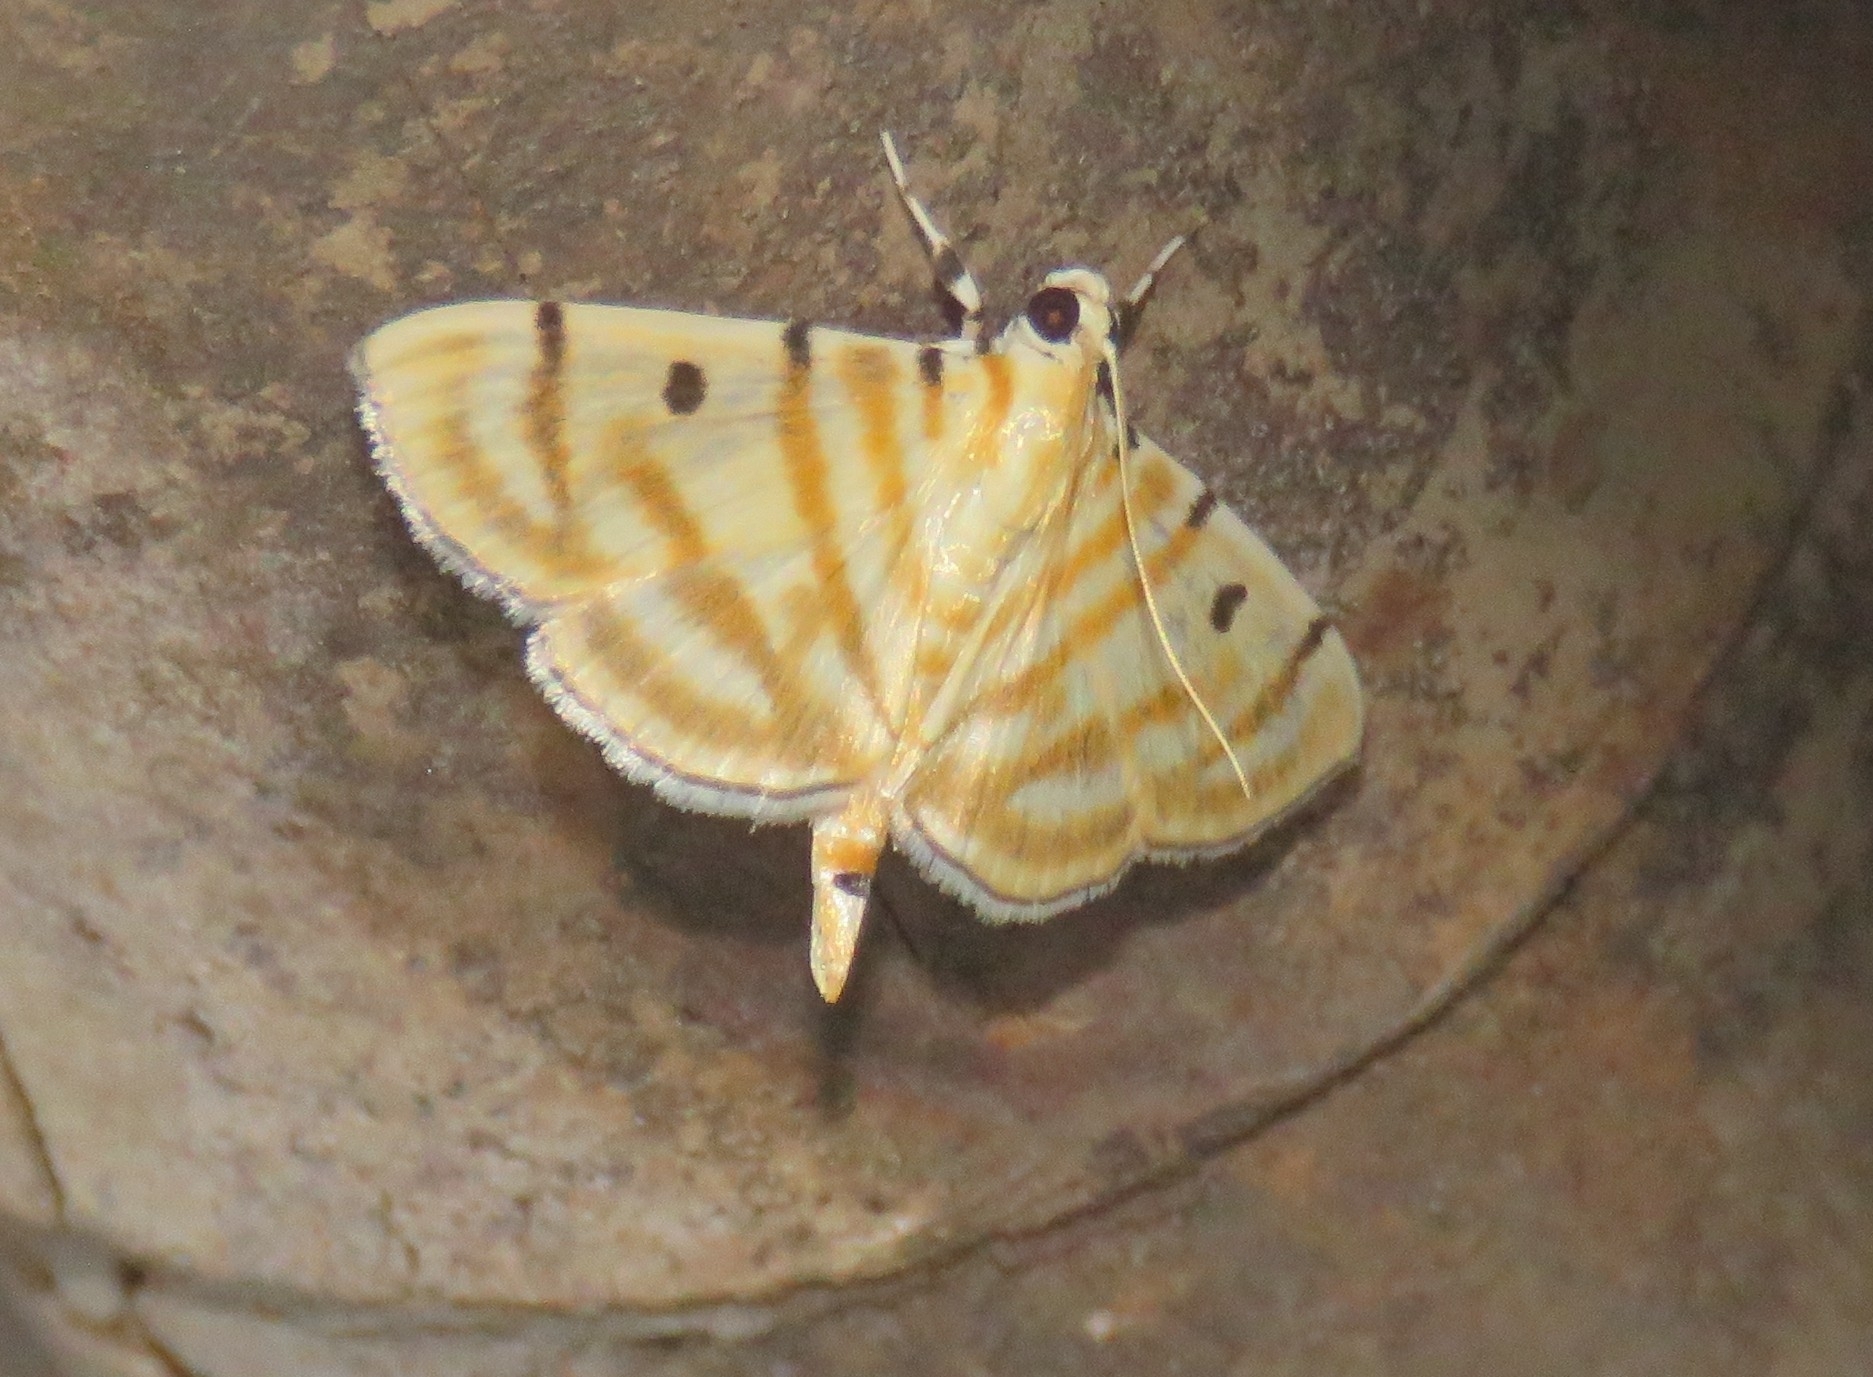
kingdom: Animalia
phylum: Arthropoda
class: Insecta
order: Lepidoptera
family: Crambidae
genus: Orthospila
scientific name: Orthospila orissusalis
